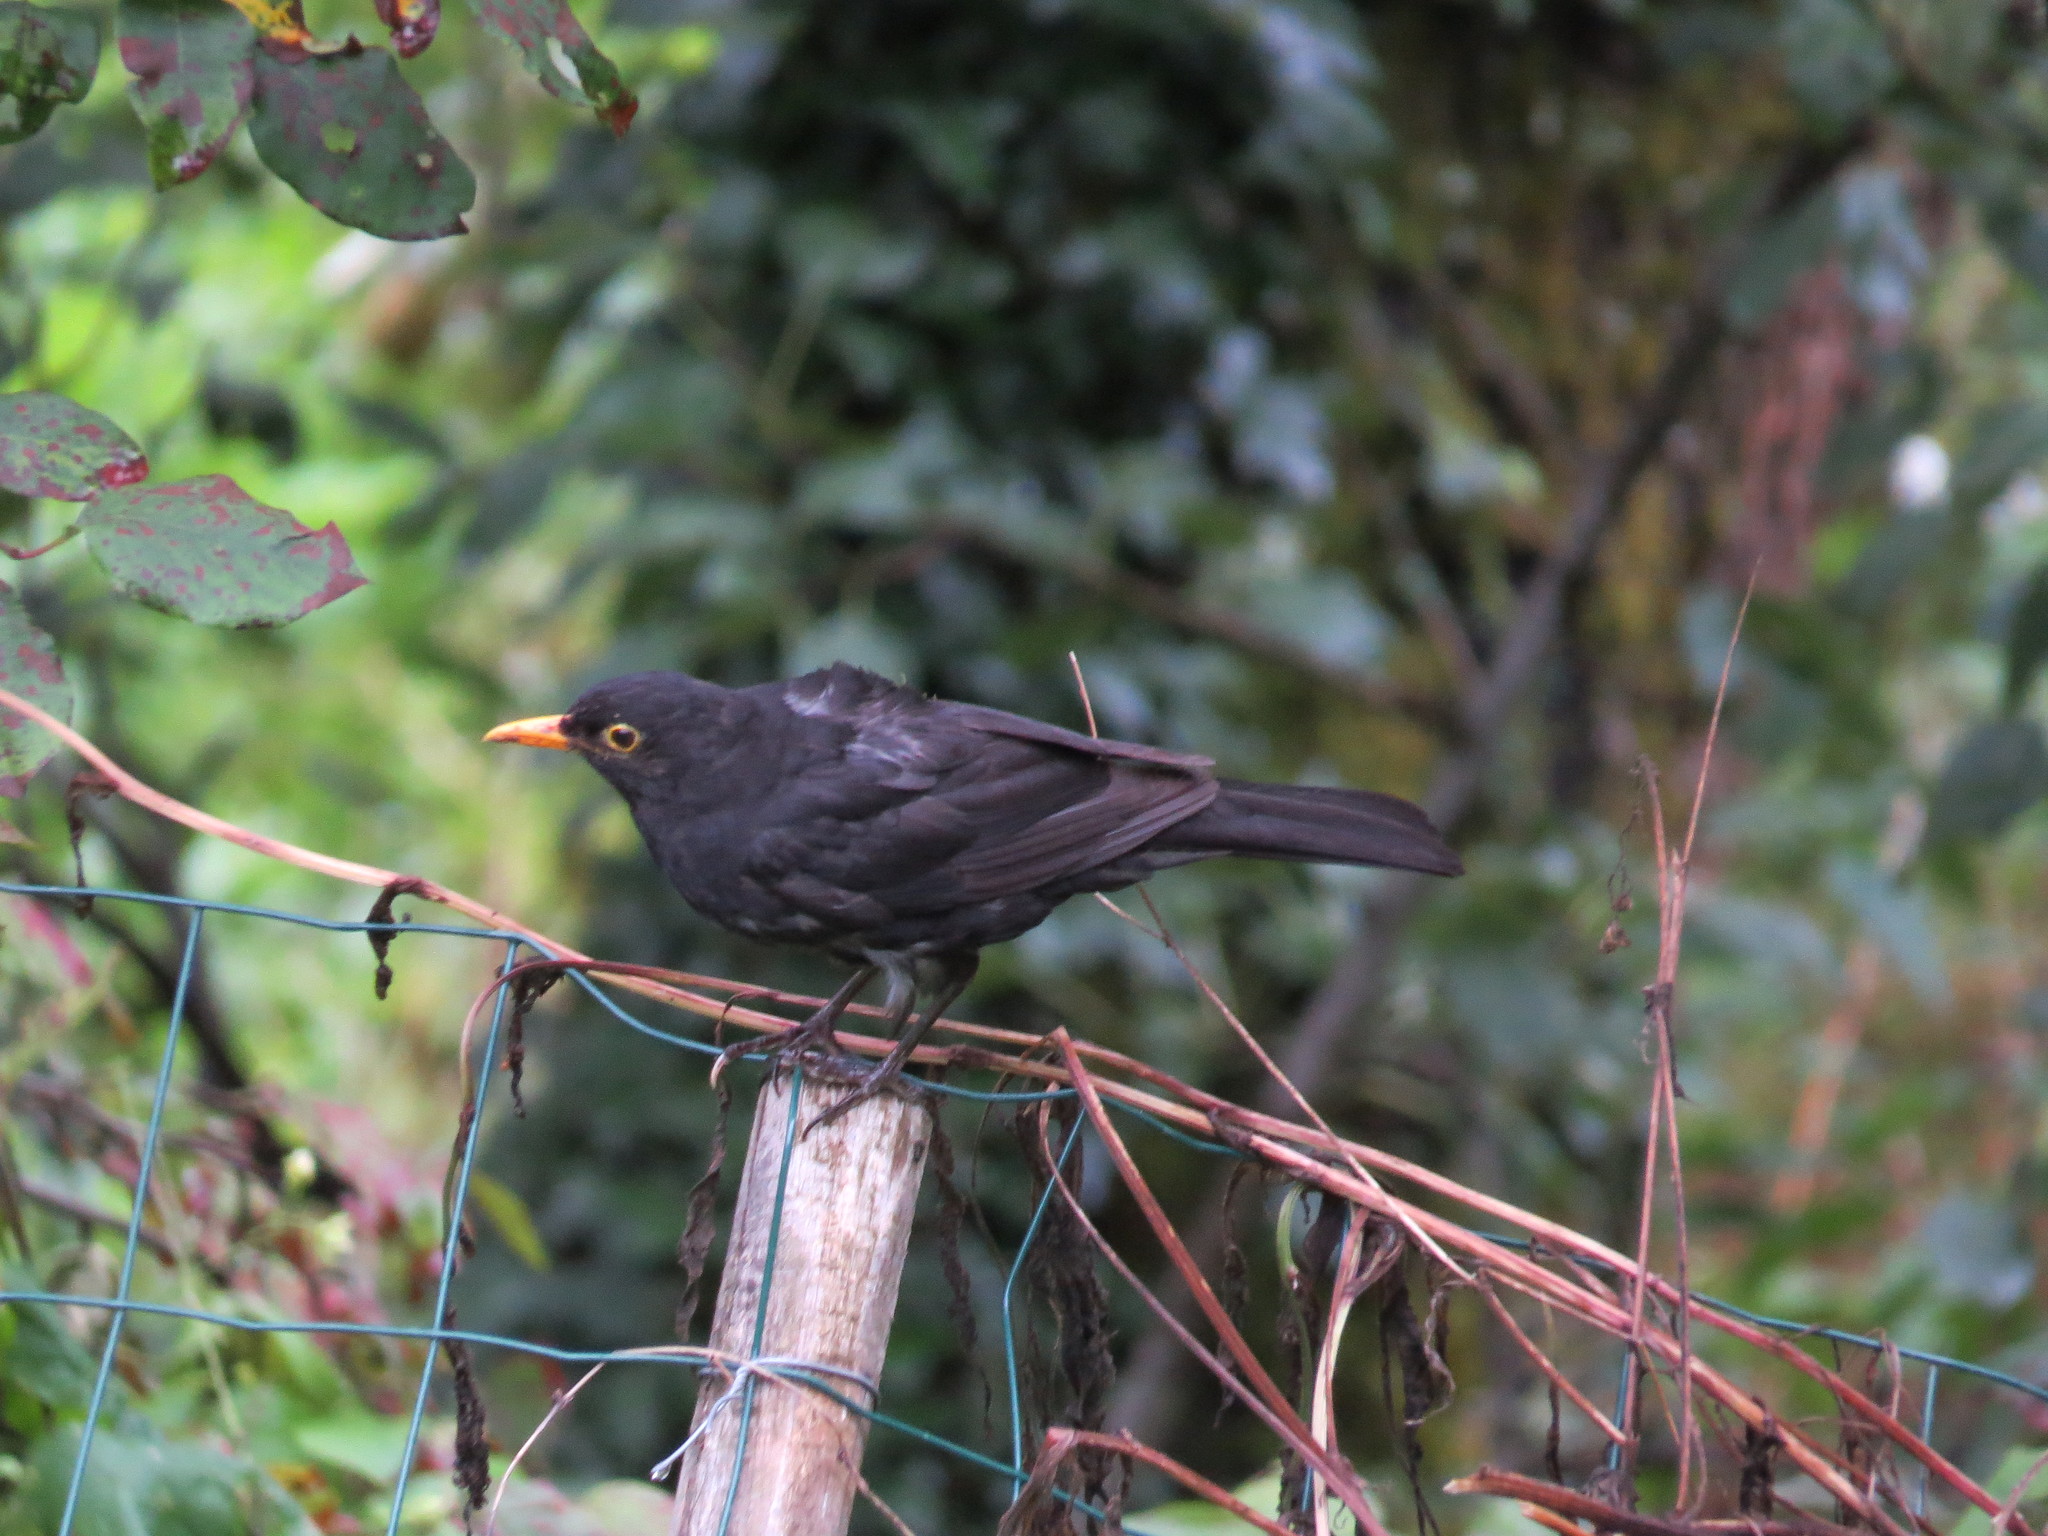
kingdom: Animalia
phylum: Chordata
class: Aves
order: Passeriformes
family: Turdidae
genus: Turdus
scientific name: Turdus merula
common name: Common blackbird
